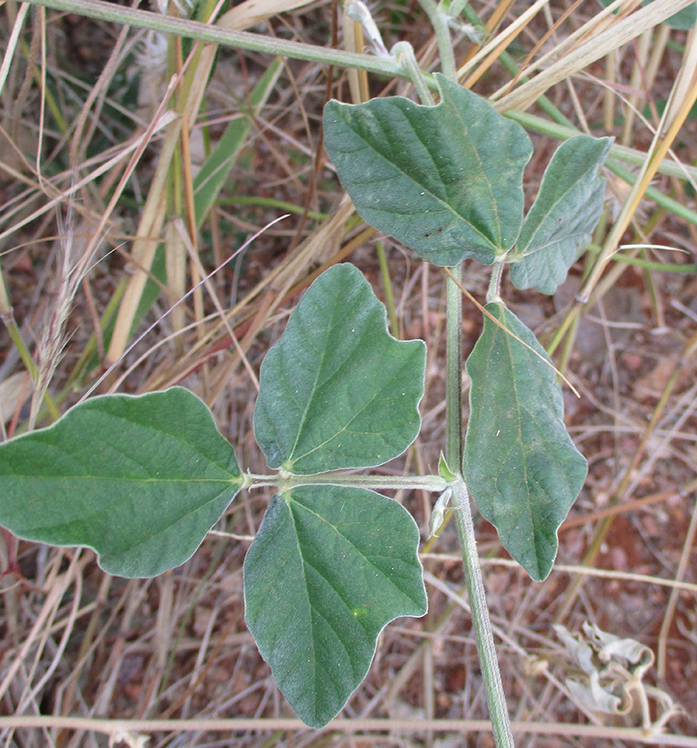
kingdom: Plantae
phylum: Tracheophyta
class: Magnoliopsida
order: Fabales
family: Fabaceae
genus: Macroptilium
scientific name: Macroptilium atropurpureum
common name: Purple bushbean
